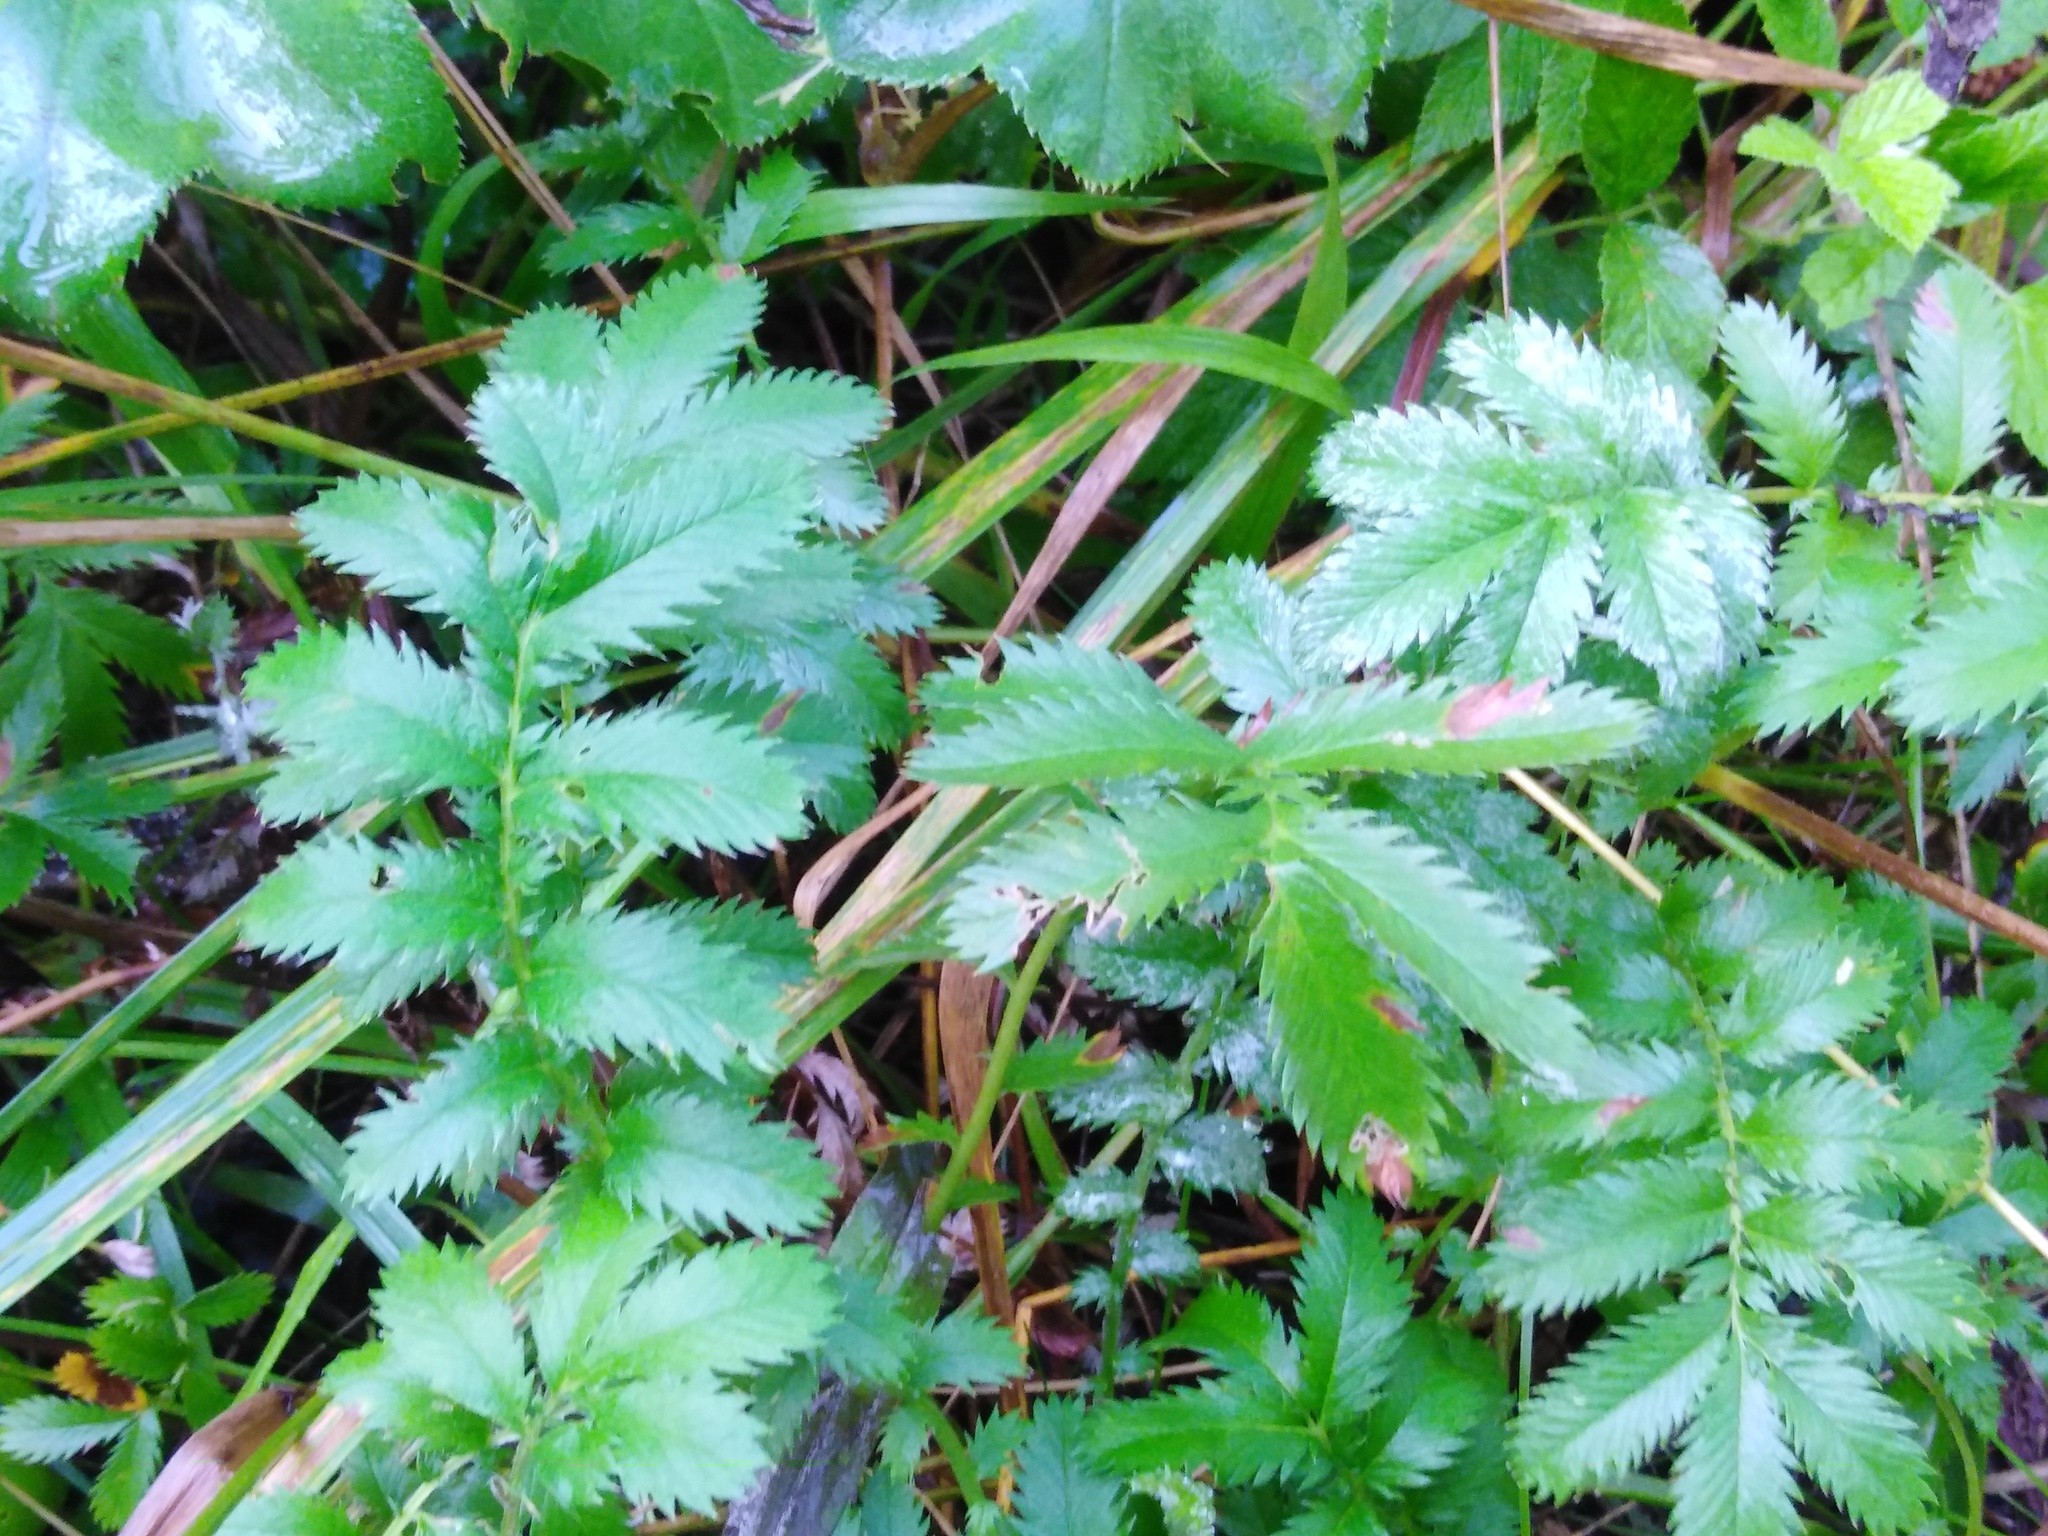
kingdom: Plantae
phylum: Tracheophyta
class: Magnoliopsida
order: Rosales
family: Rosaceae
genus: Argentina
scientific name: Argentina anserina
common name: Common silverweed
